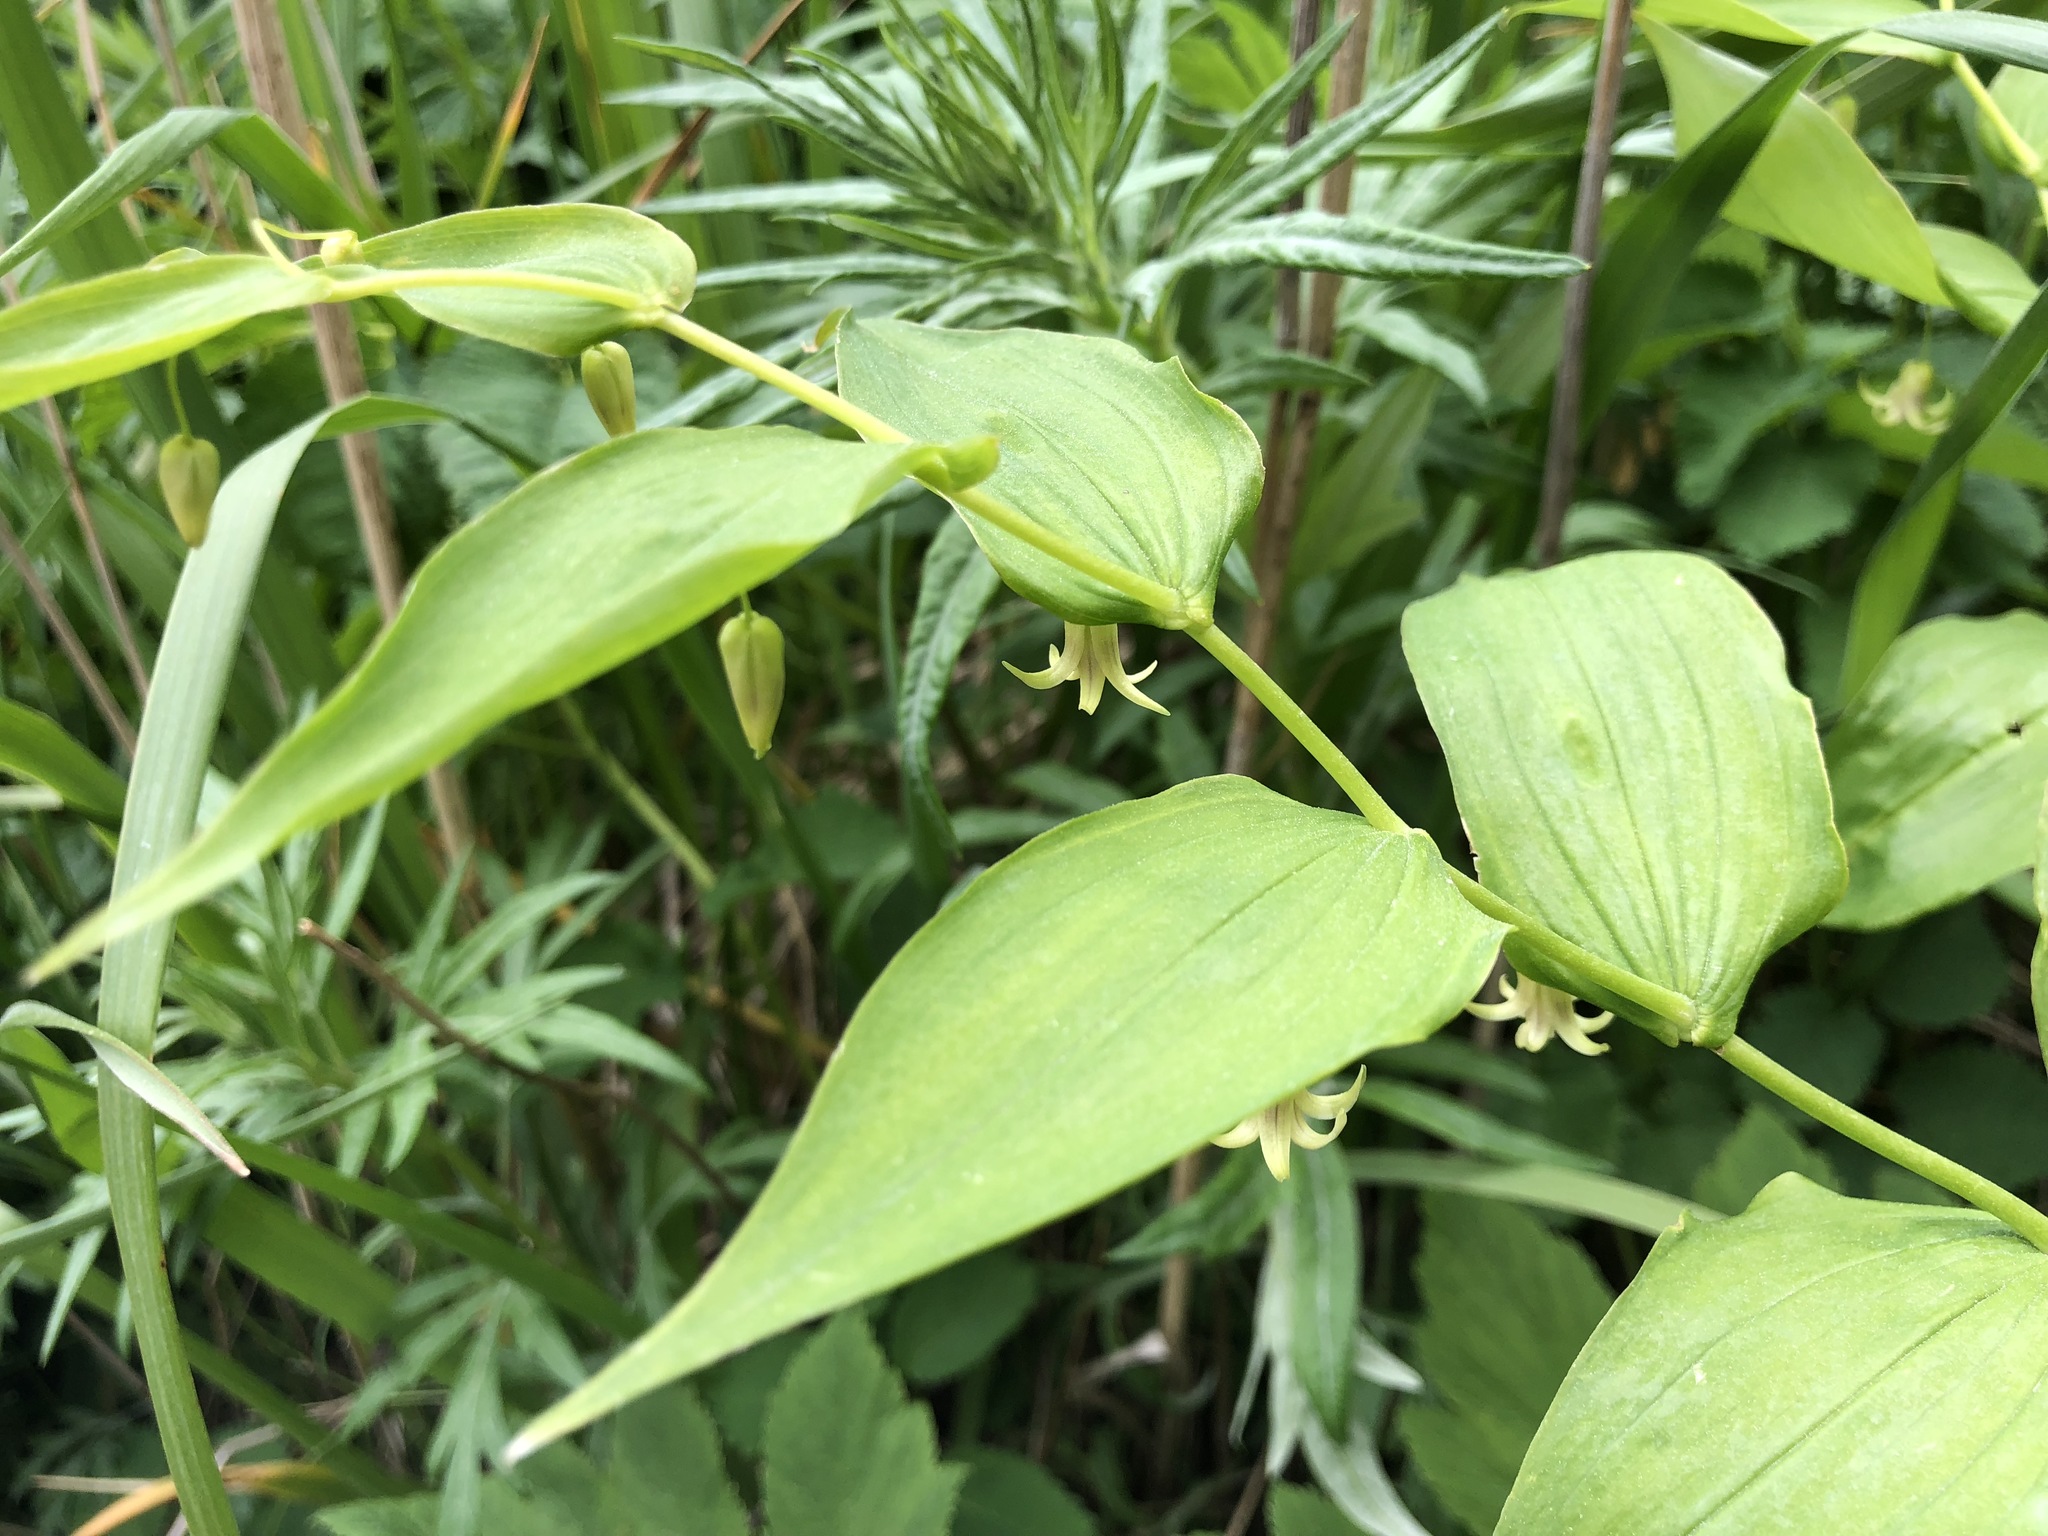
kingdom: Plantae
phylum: Tracheophyta
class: Liliopsida
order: Liliales
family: Liliaceae
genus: Streptopus
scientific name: Streptopus amplexifolius
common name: Clasp twisted stalk
